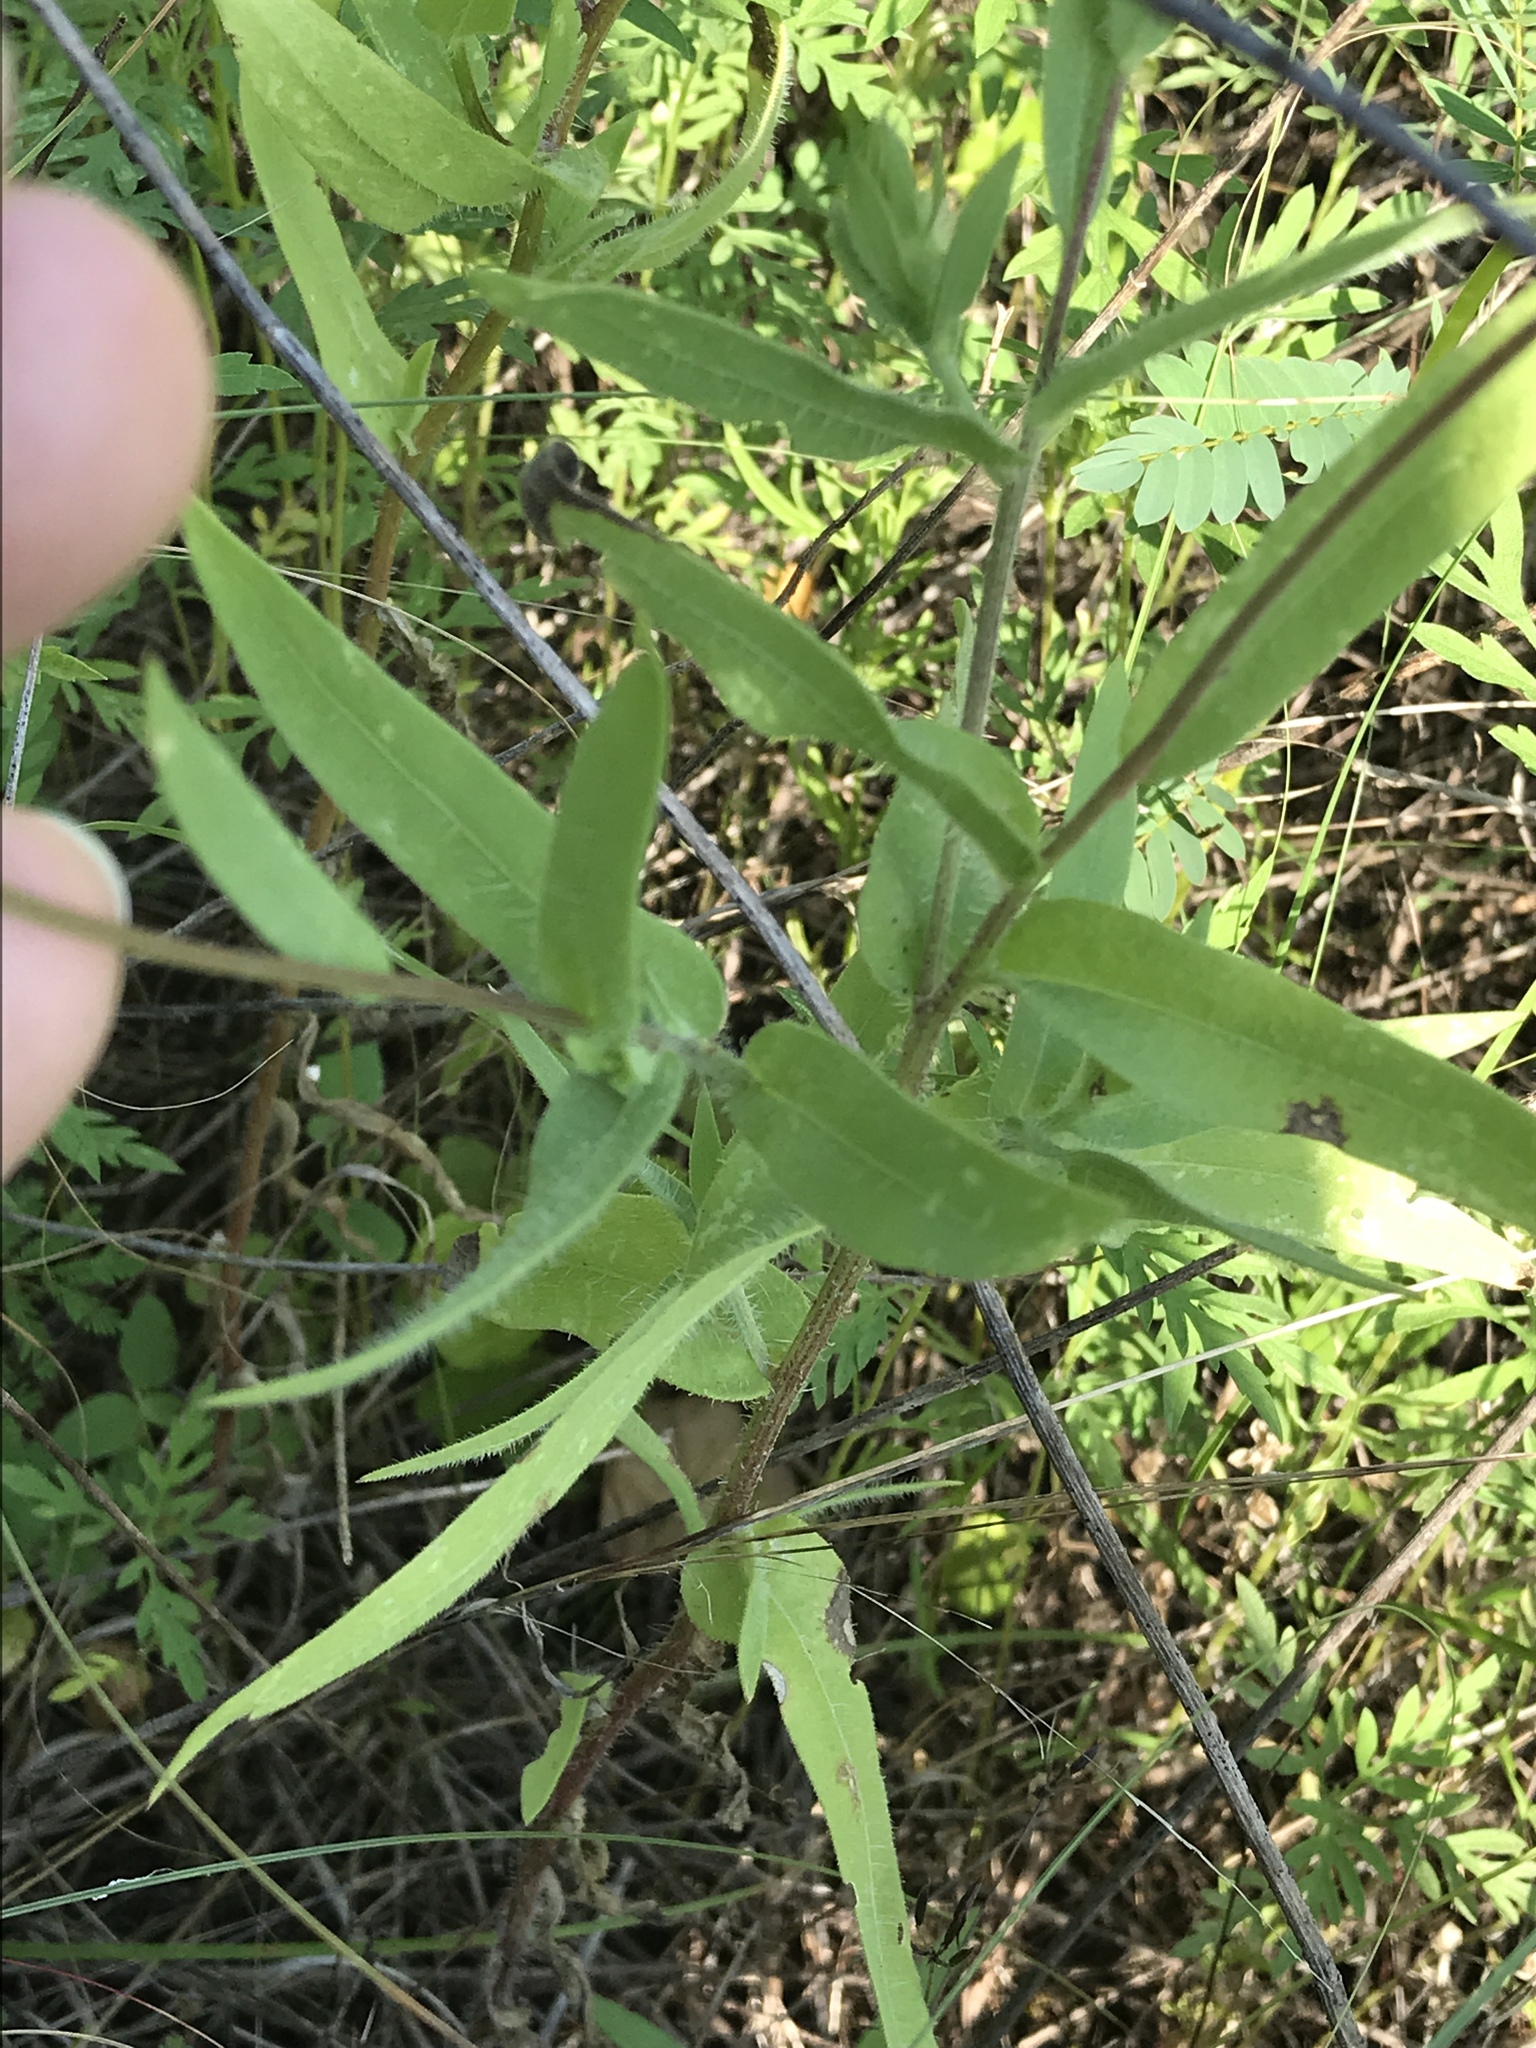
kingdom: Plantae
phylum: Tracheophyta
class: Magnoliopsida
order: Asterales
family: Asteraceae
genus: Gaillardia
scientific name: Gaillardia pulchella
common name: Firewheel
